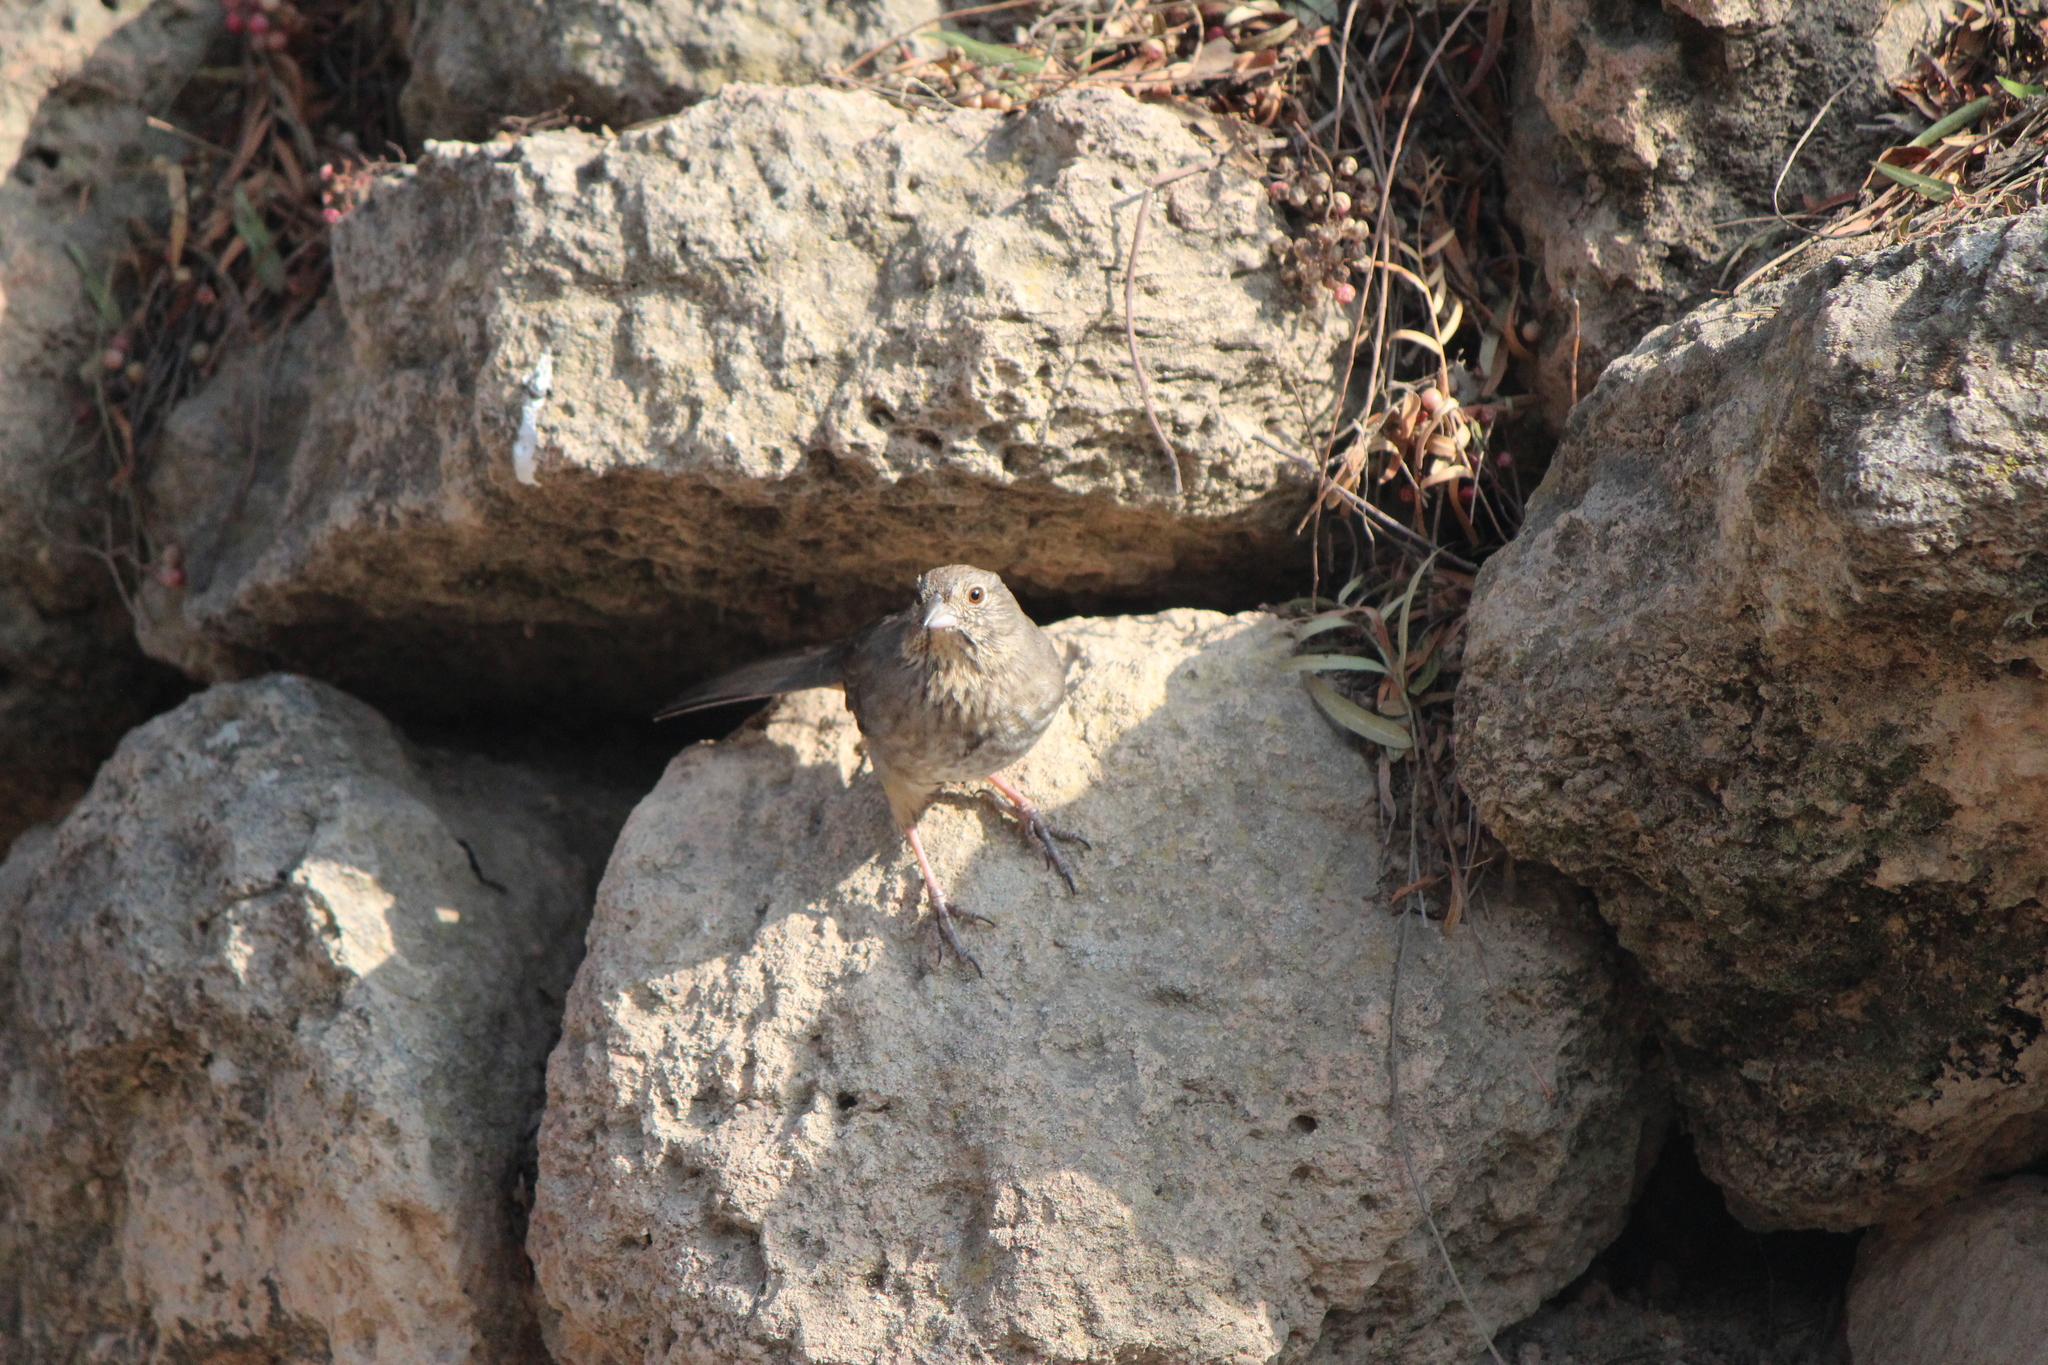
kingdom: Animalia
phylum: Chordata
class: Aves
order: Passeriformes
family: Passerellidae
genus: Melozone
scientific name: Melozone fusca
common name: Canyon towhee
